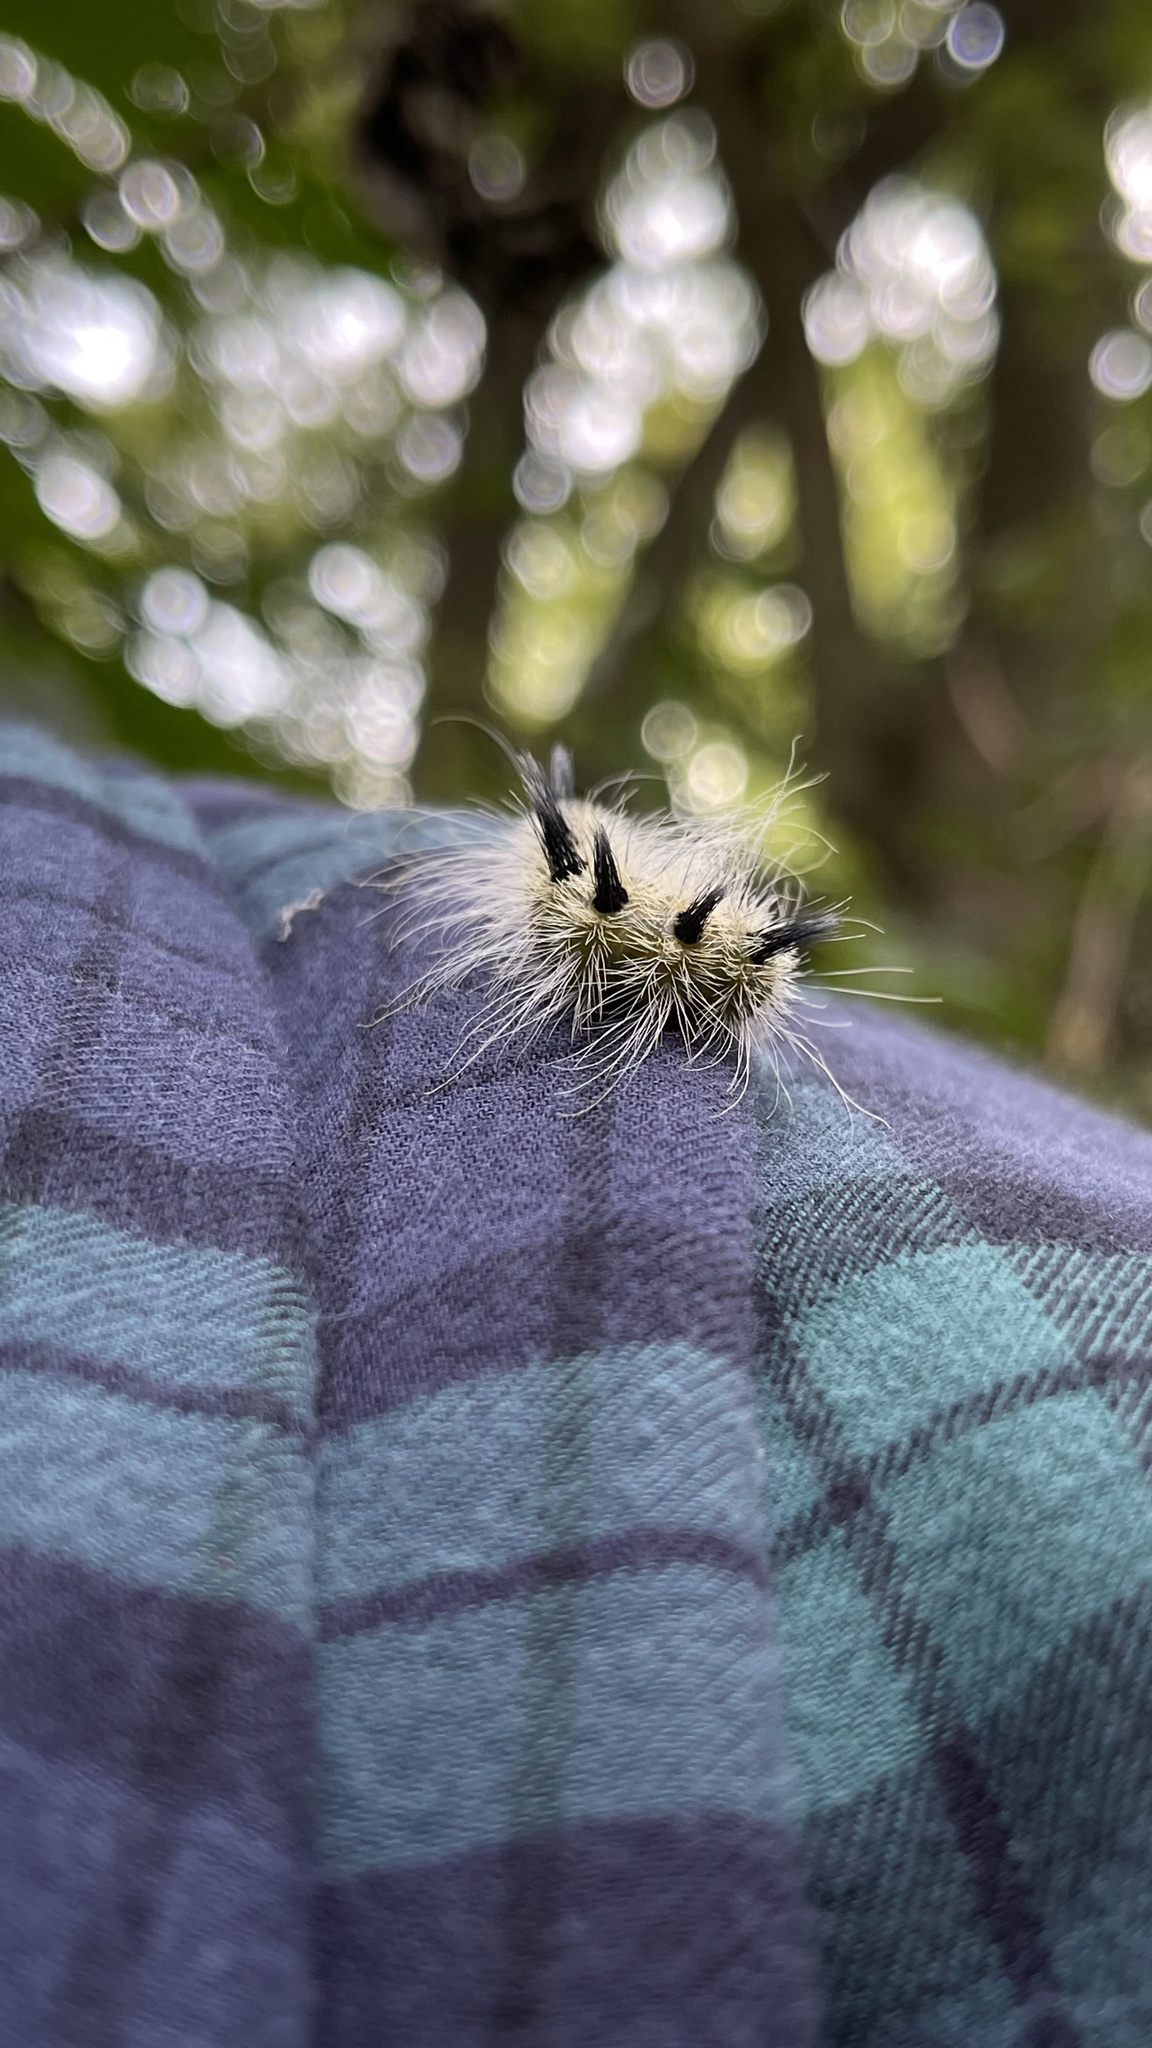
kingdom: Animalia
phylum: Arthropoda
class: Insecta
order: Lepidoptera
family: Noctuidae
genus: Acronicta
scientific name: Acronicta rubricoma
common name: Hackberry dagger
